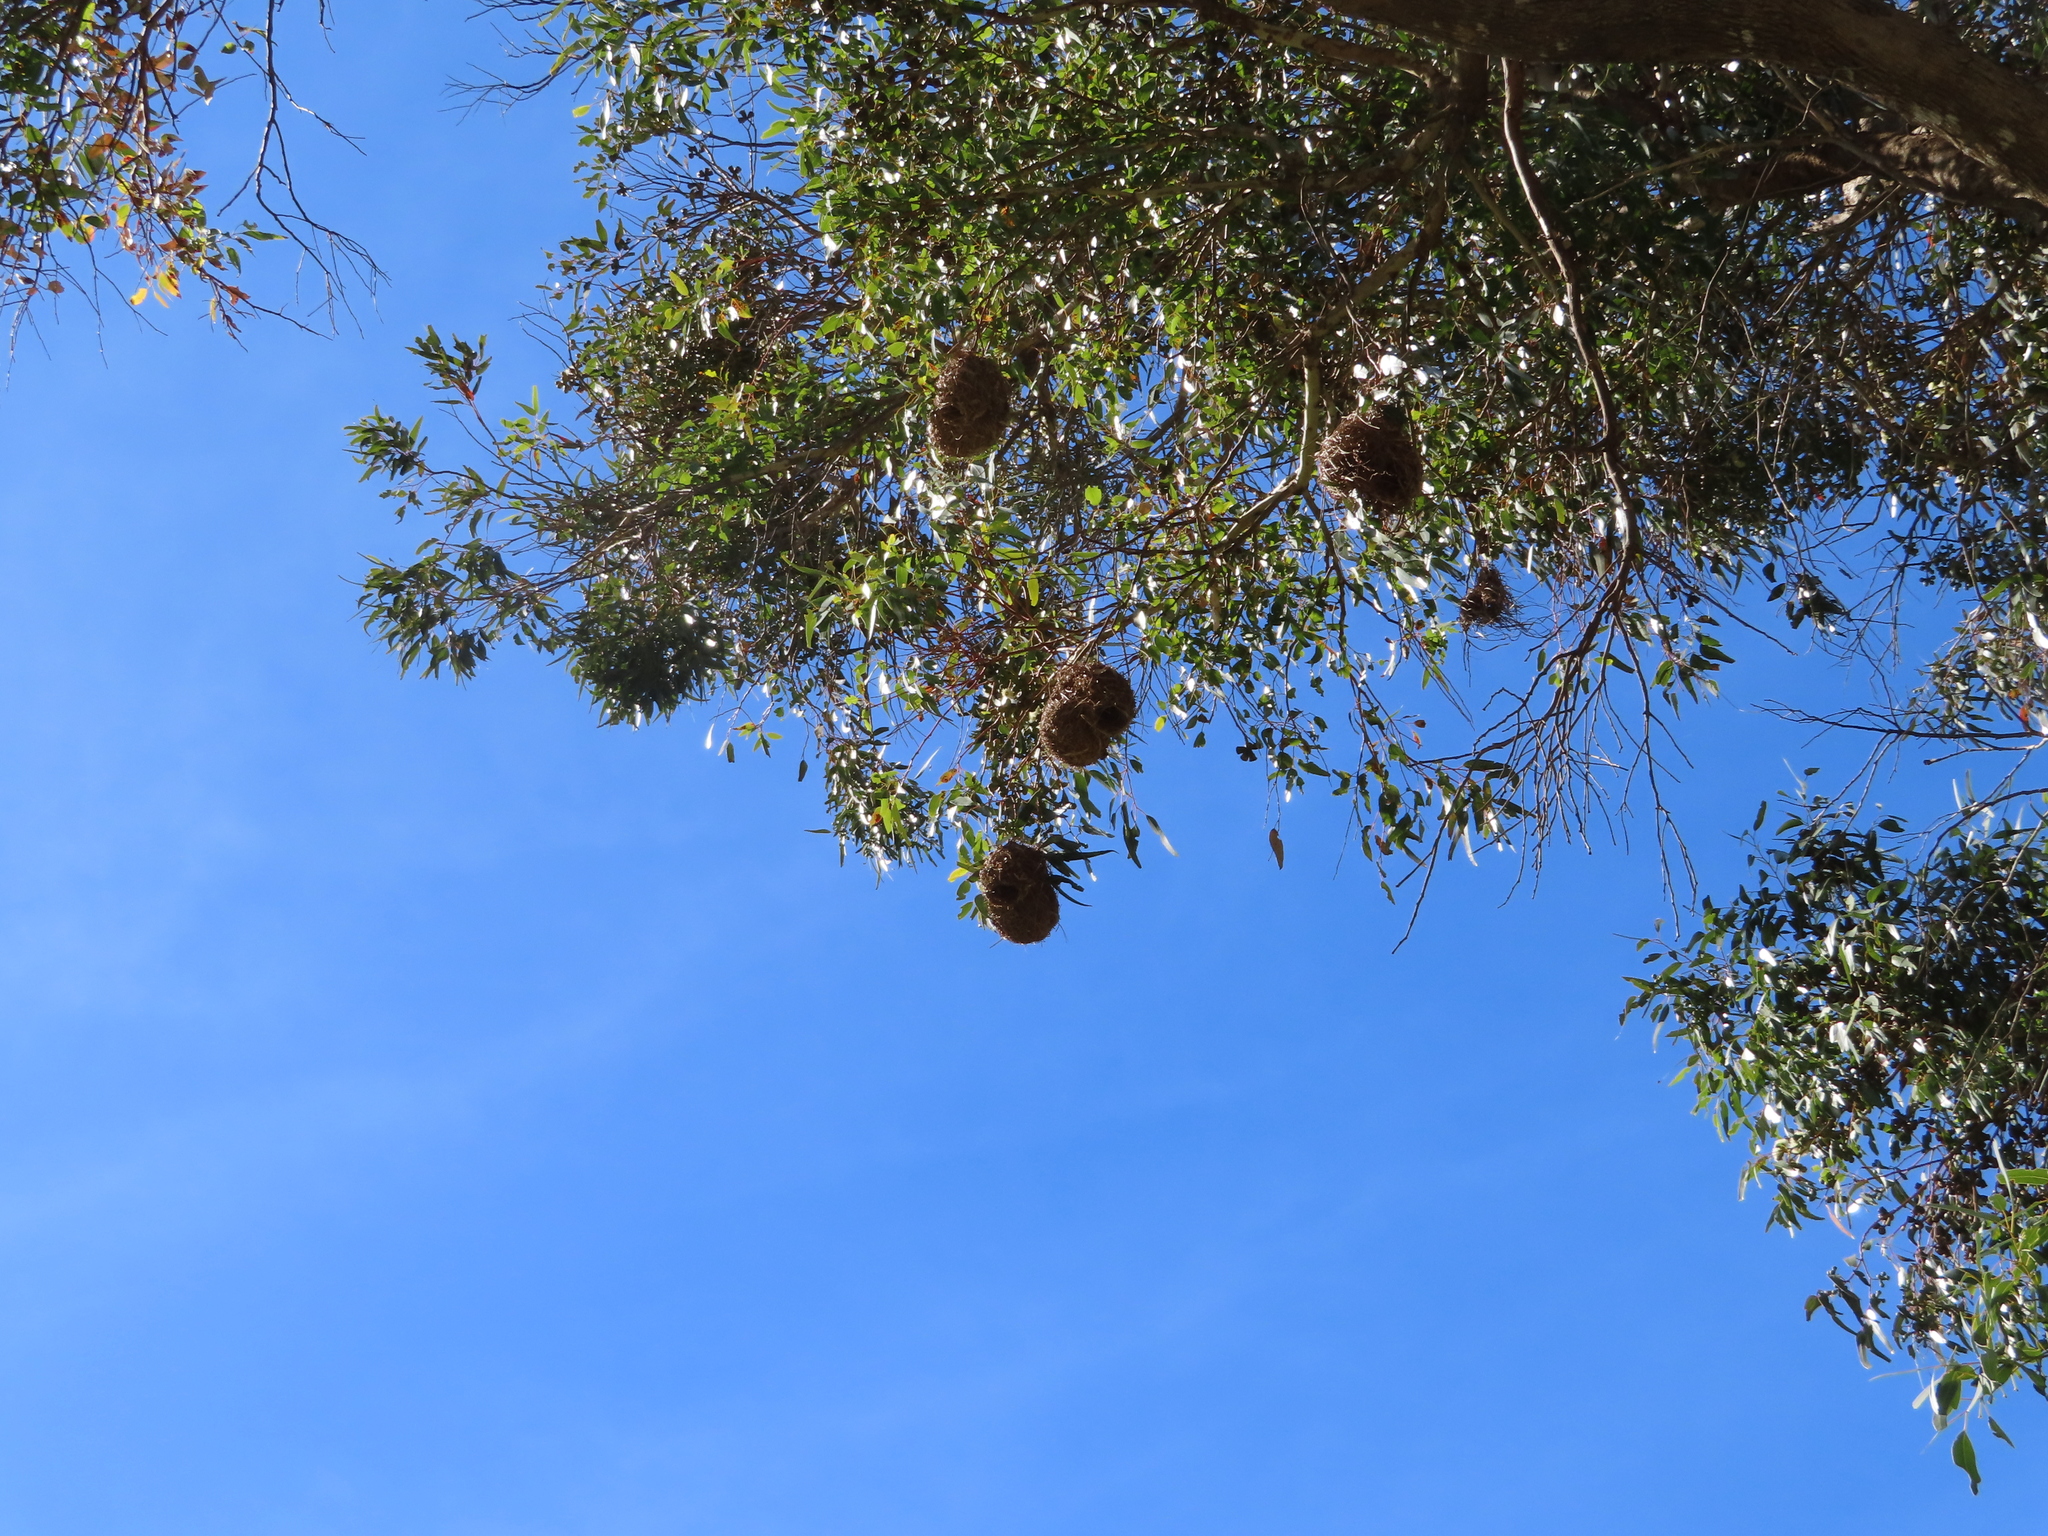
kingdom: Animalia
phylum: Chordata
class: Aves
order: Passeriformes
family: Ploceidae
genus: Ploceus
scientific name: Ploceus capensis
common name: Cape weaver
